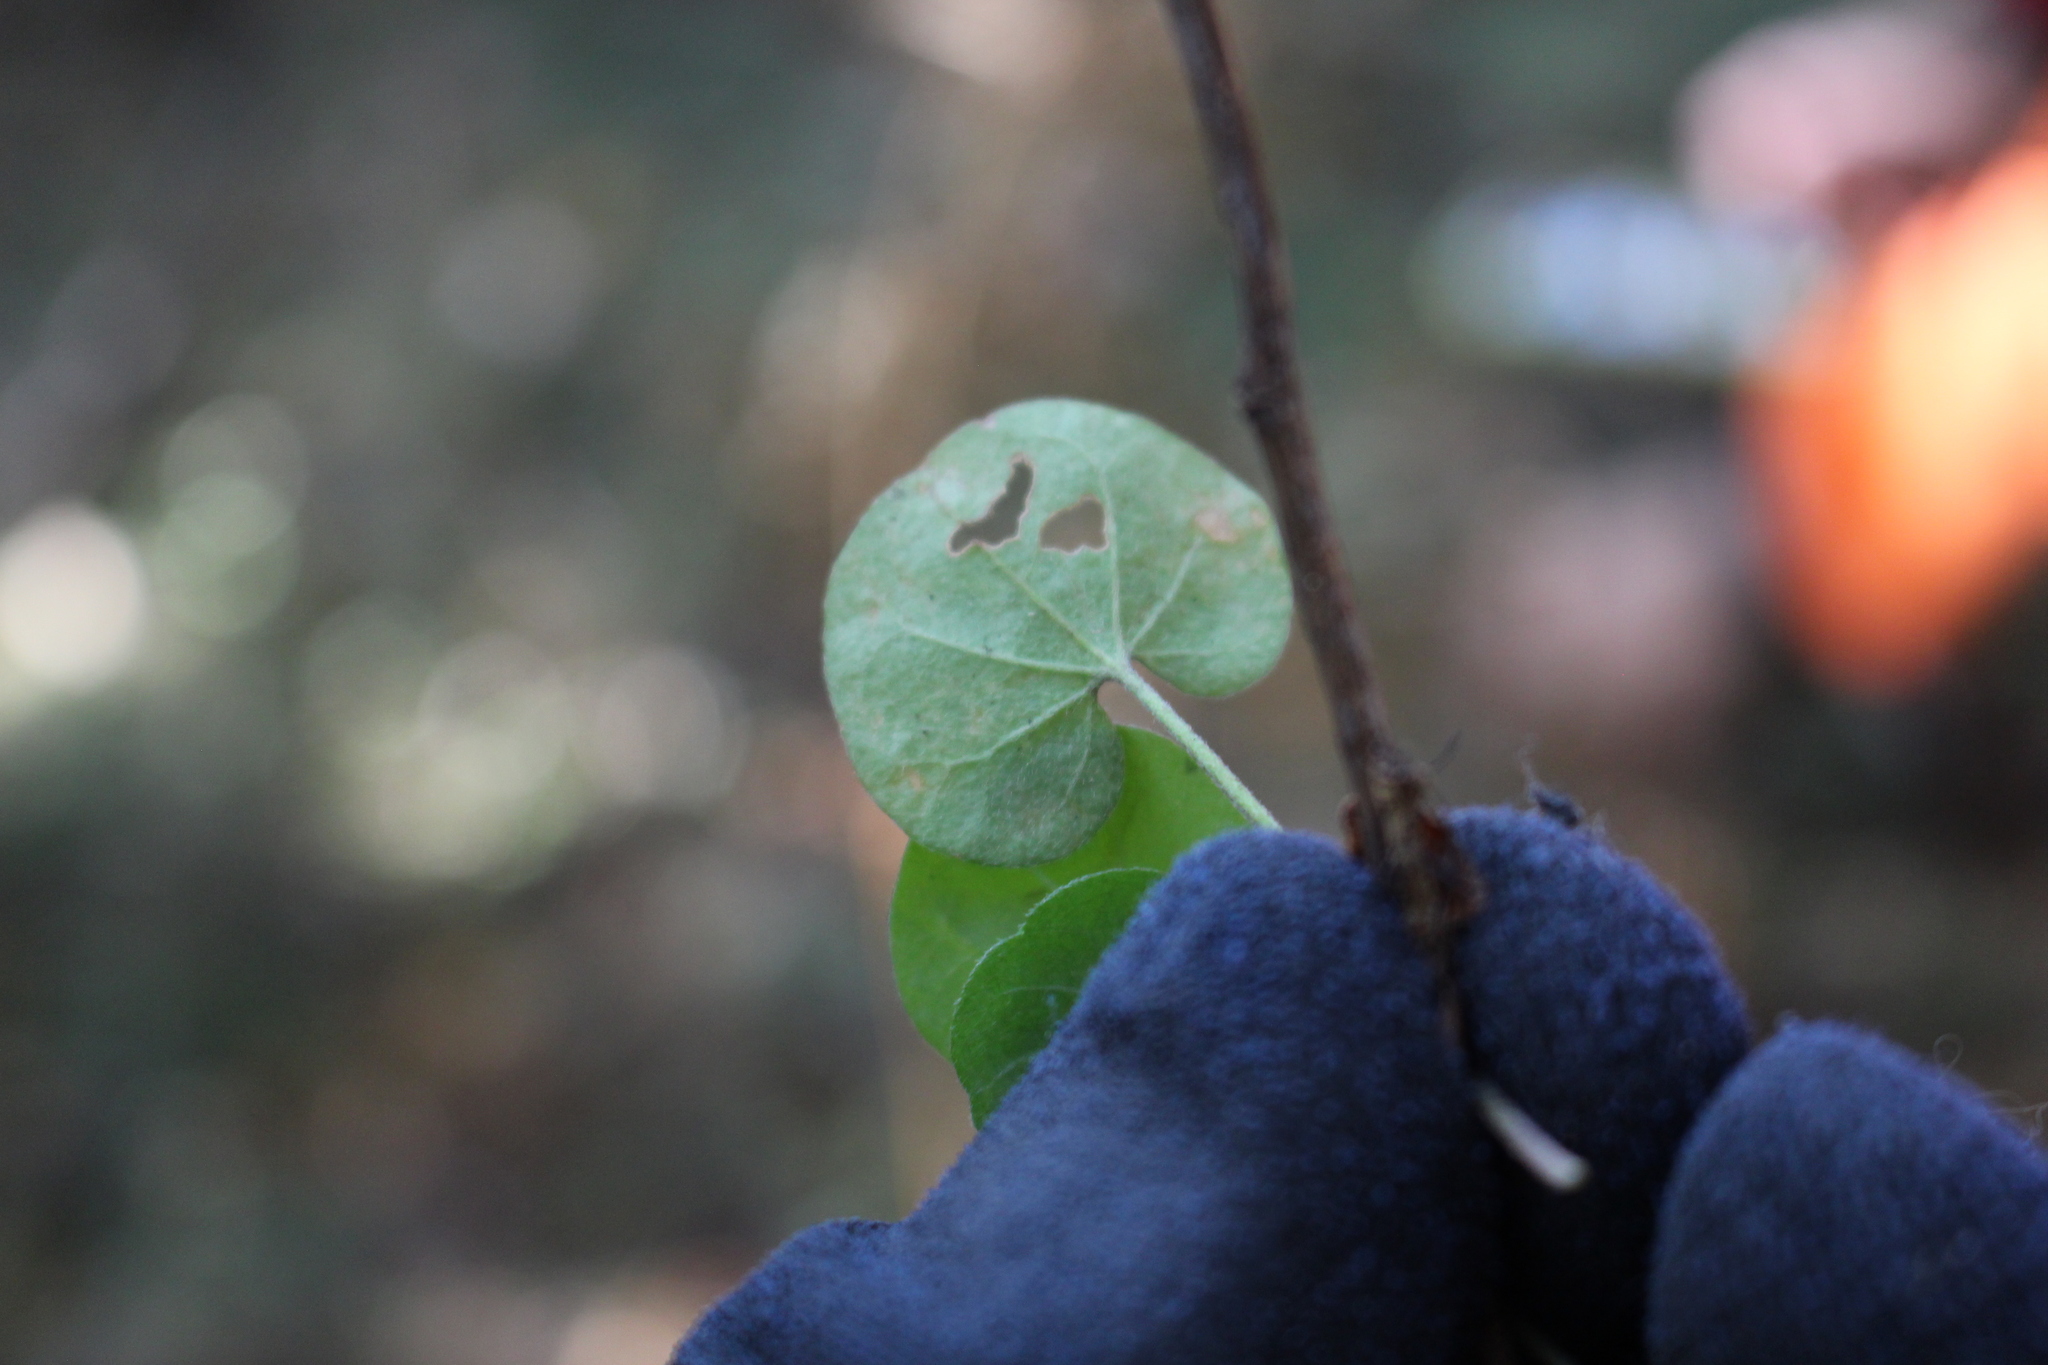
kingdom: Plantae
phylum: Tracheophyta
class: Magnoliopsida
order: Solanales
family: Convolvulaceae
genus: Dichondra
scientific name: Dichondra repens
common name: Kidneyweed
